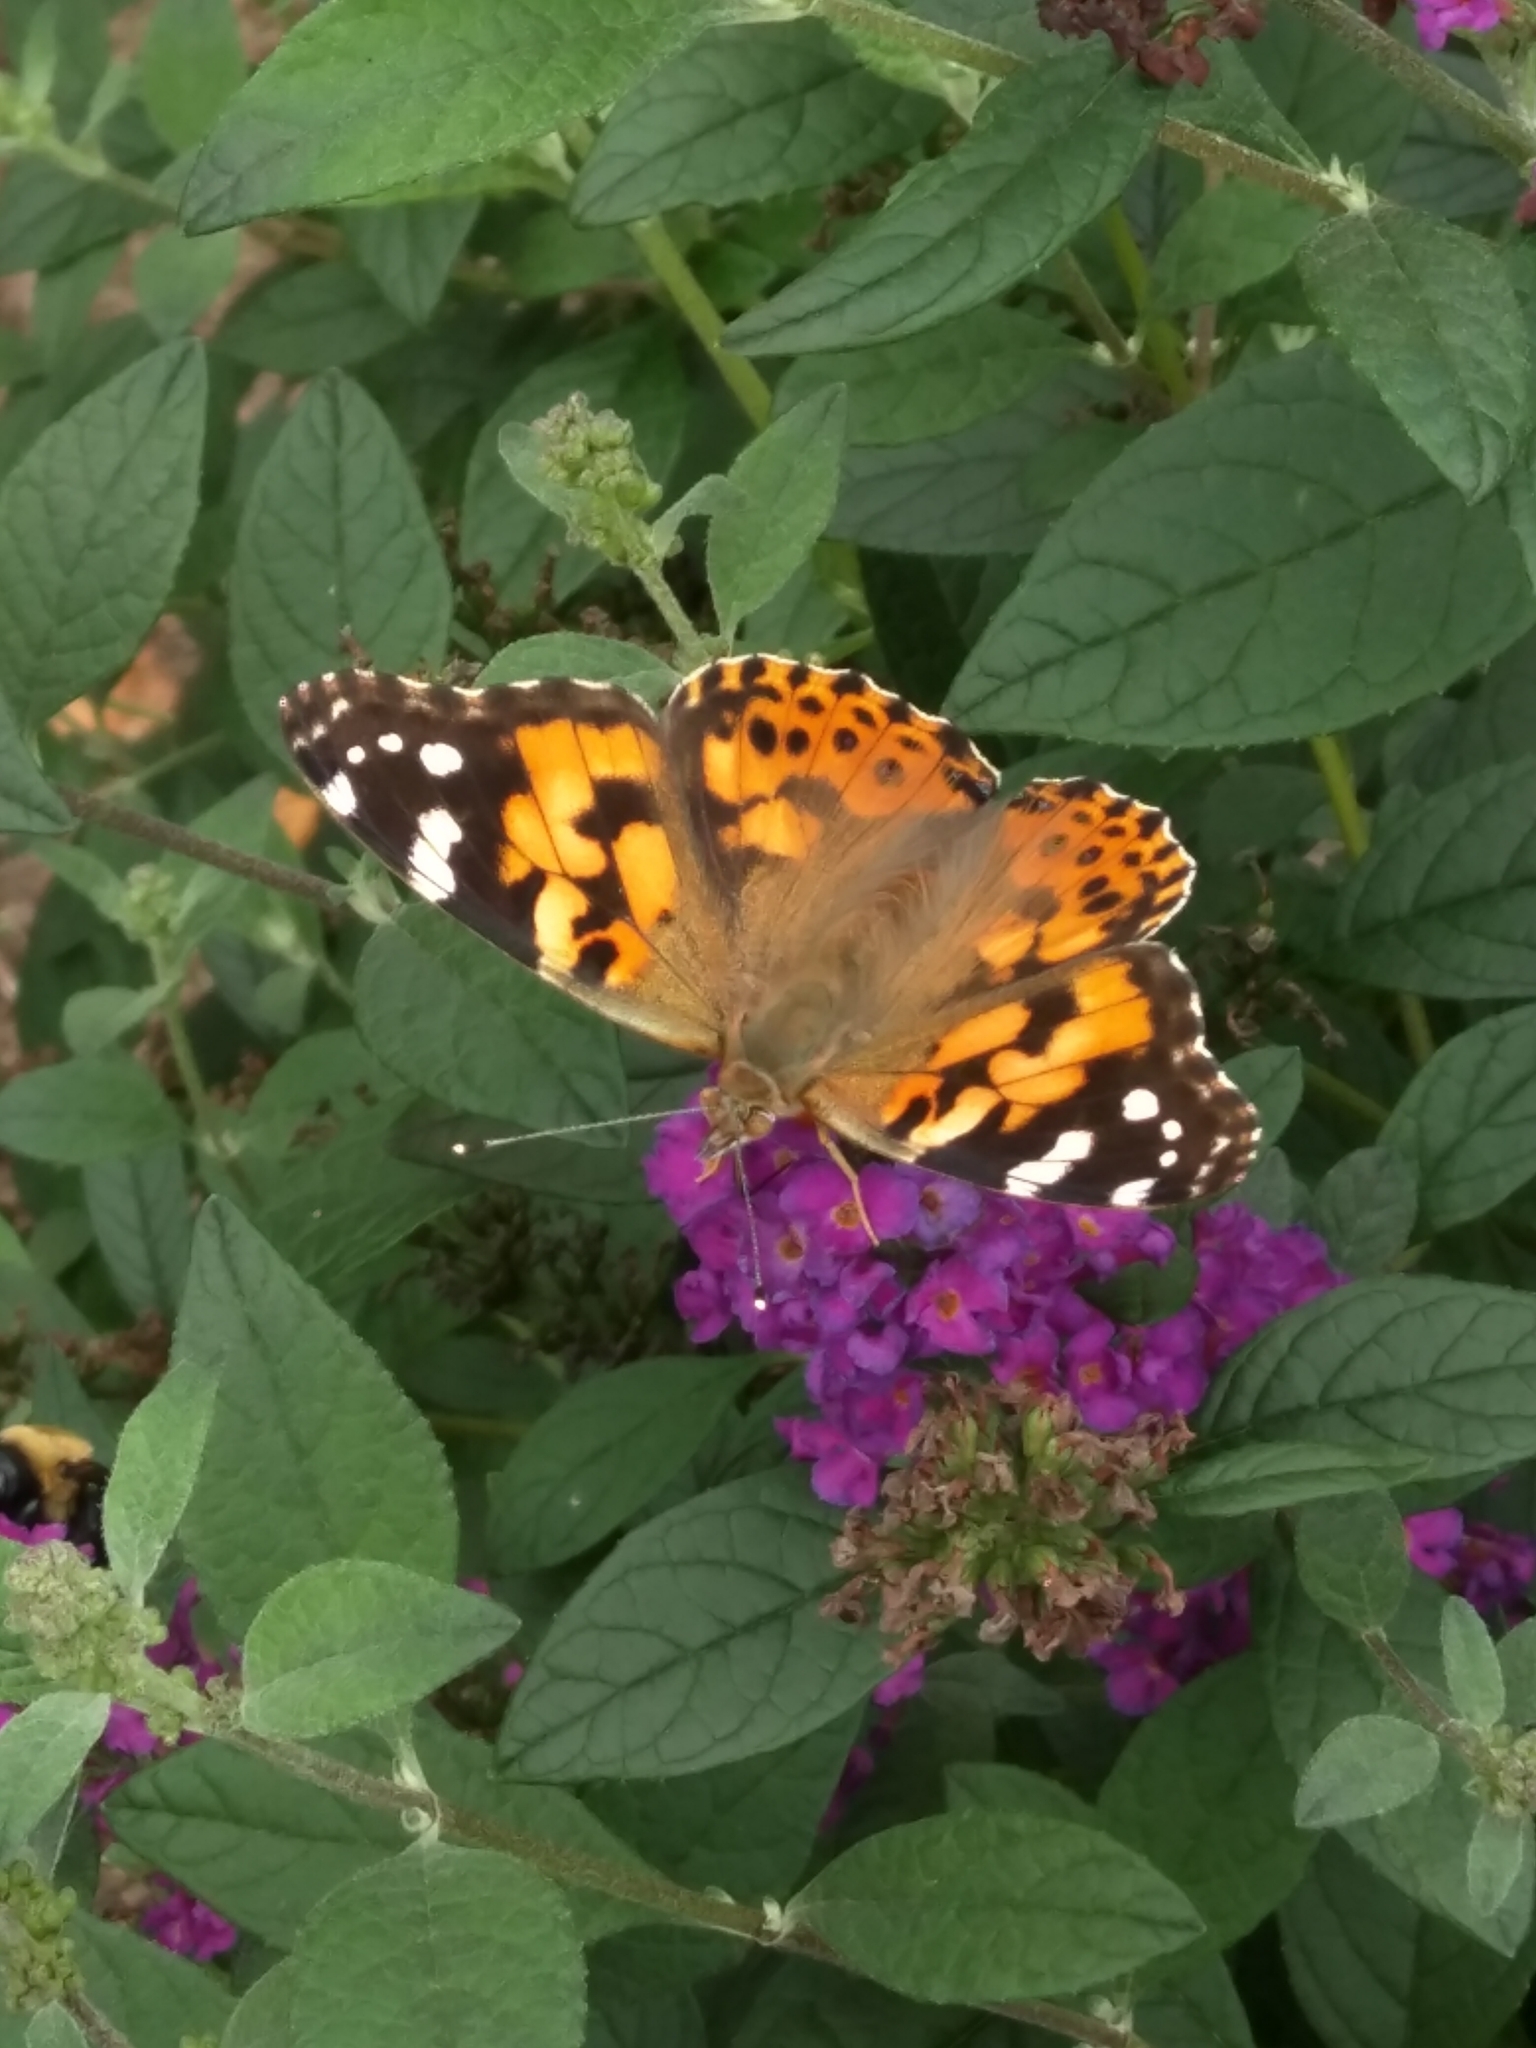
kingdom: Animalia
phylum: Arthropoda
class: Insecta
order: Lepidoptera
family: Nymphalidae
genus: Vanessa
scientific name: Vanessa cardui
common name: Painted lady
